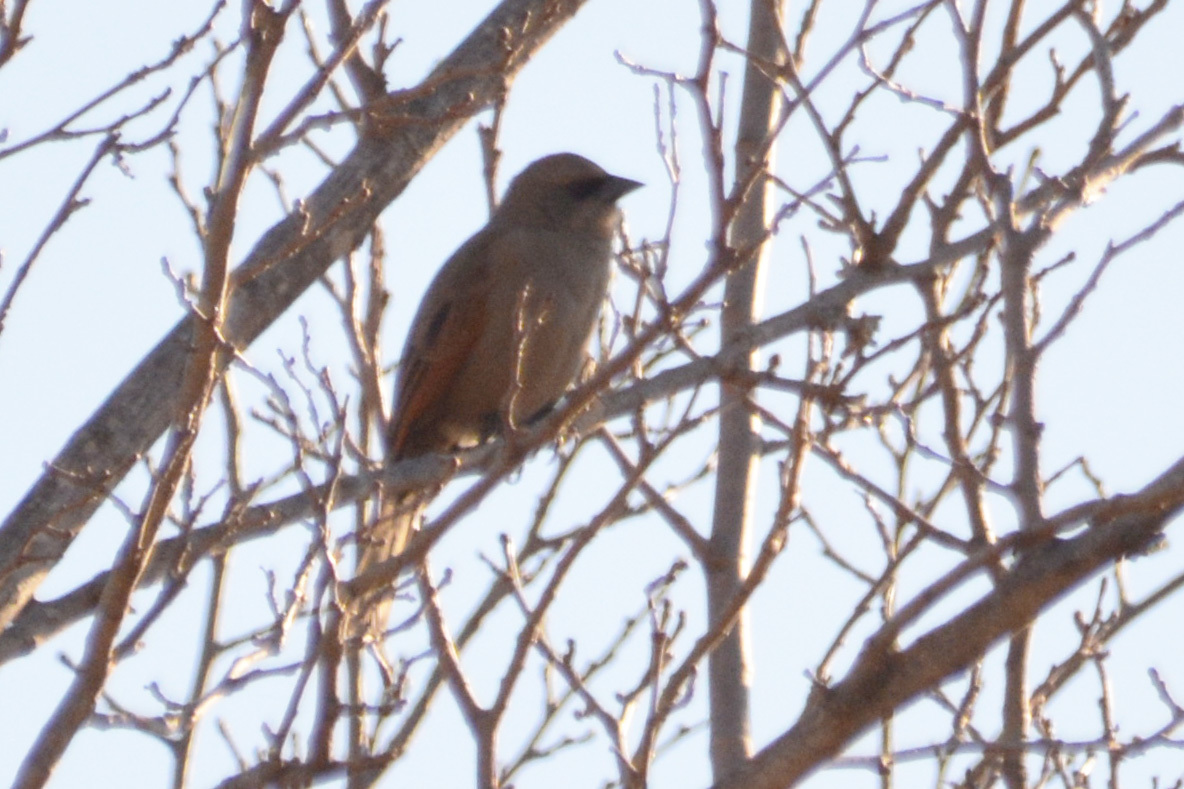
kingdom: Animalia
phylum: Chordata
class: Aves
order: Passeriformes
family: Icteridae
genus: Agelaioides
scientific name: Agelaioides badius
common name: Baywing
